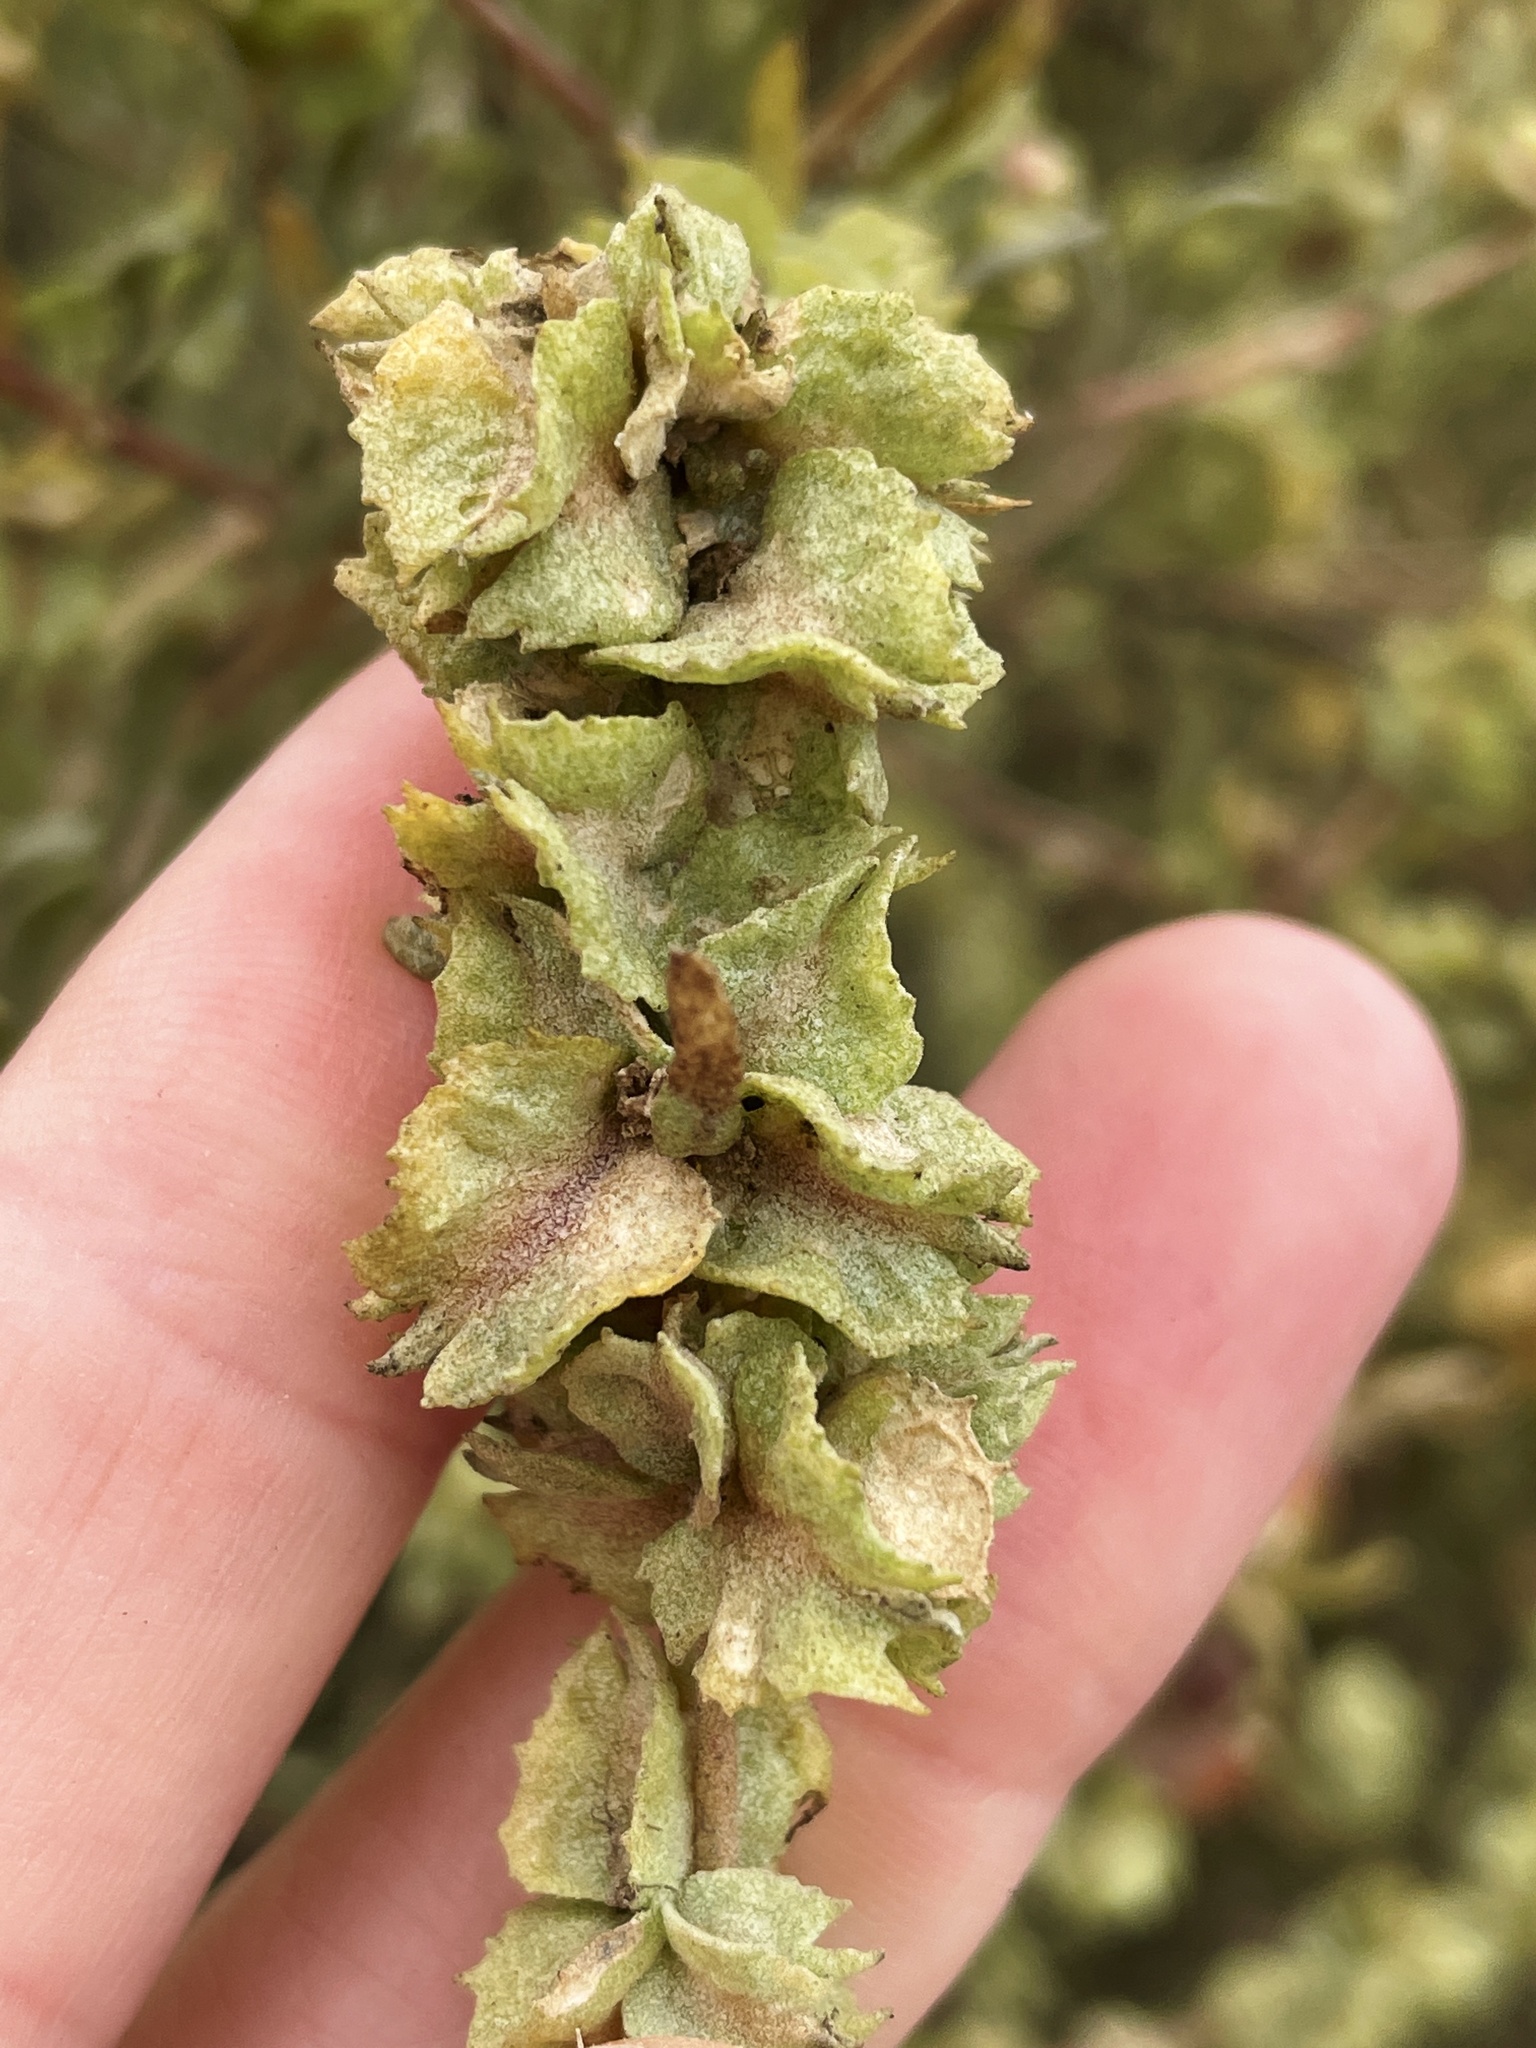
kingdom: Plantae
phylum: Tracheophyta
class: Magnoliopsida
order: Caryophyllales
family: Amaranthaceae
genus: Atriplex
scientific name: Atriplex canescens
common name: Four-wing saltbush
